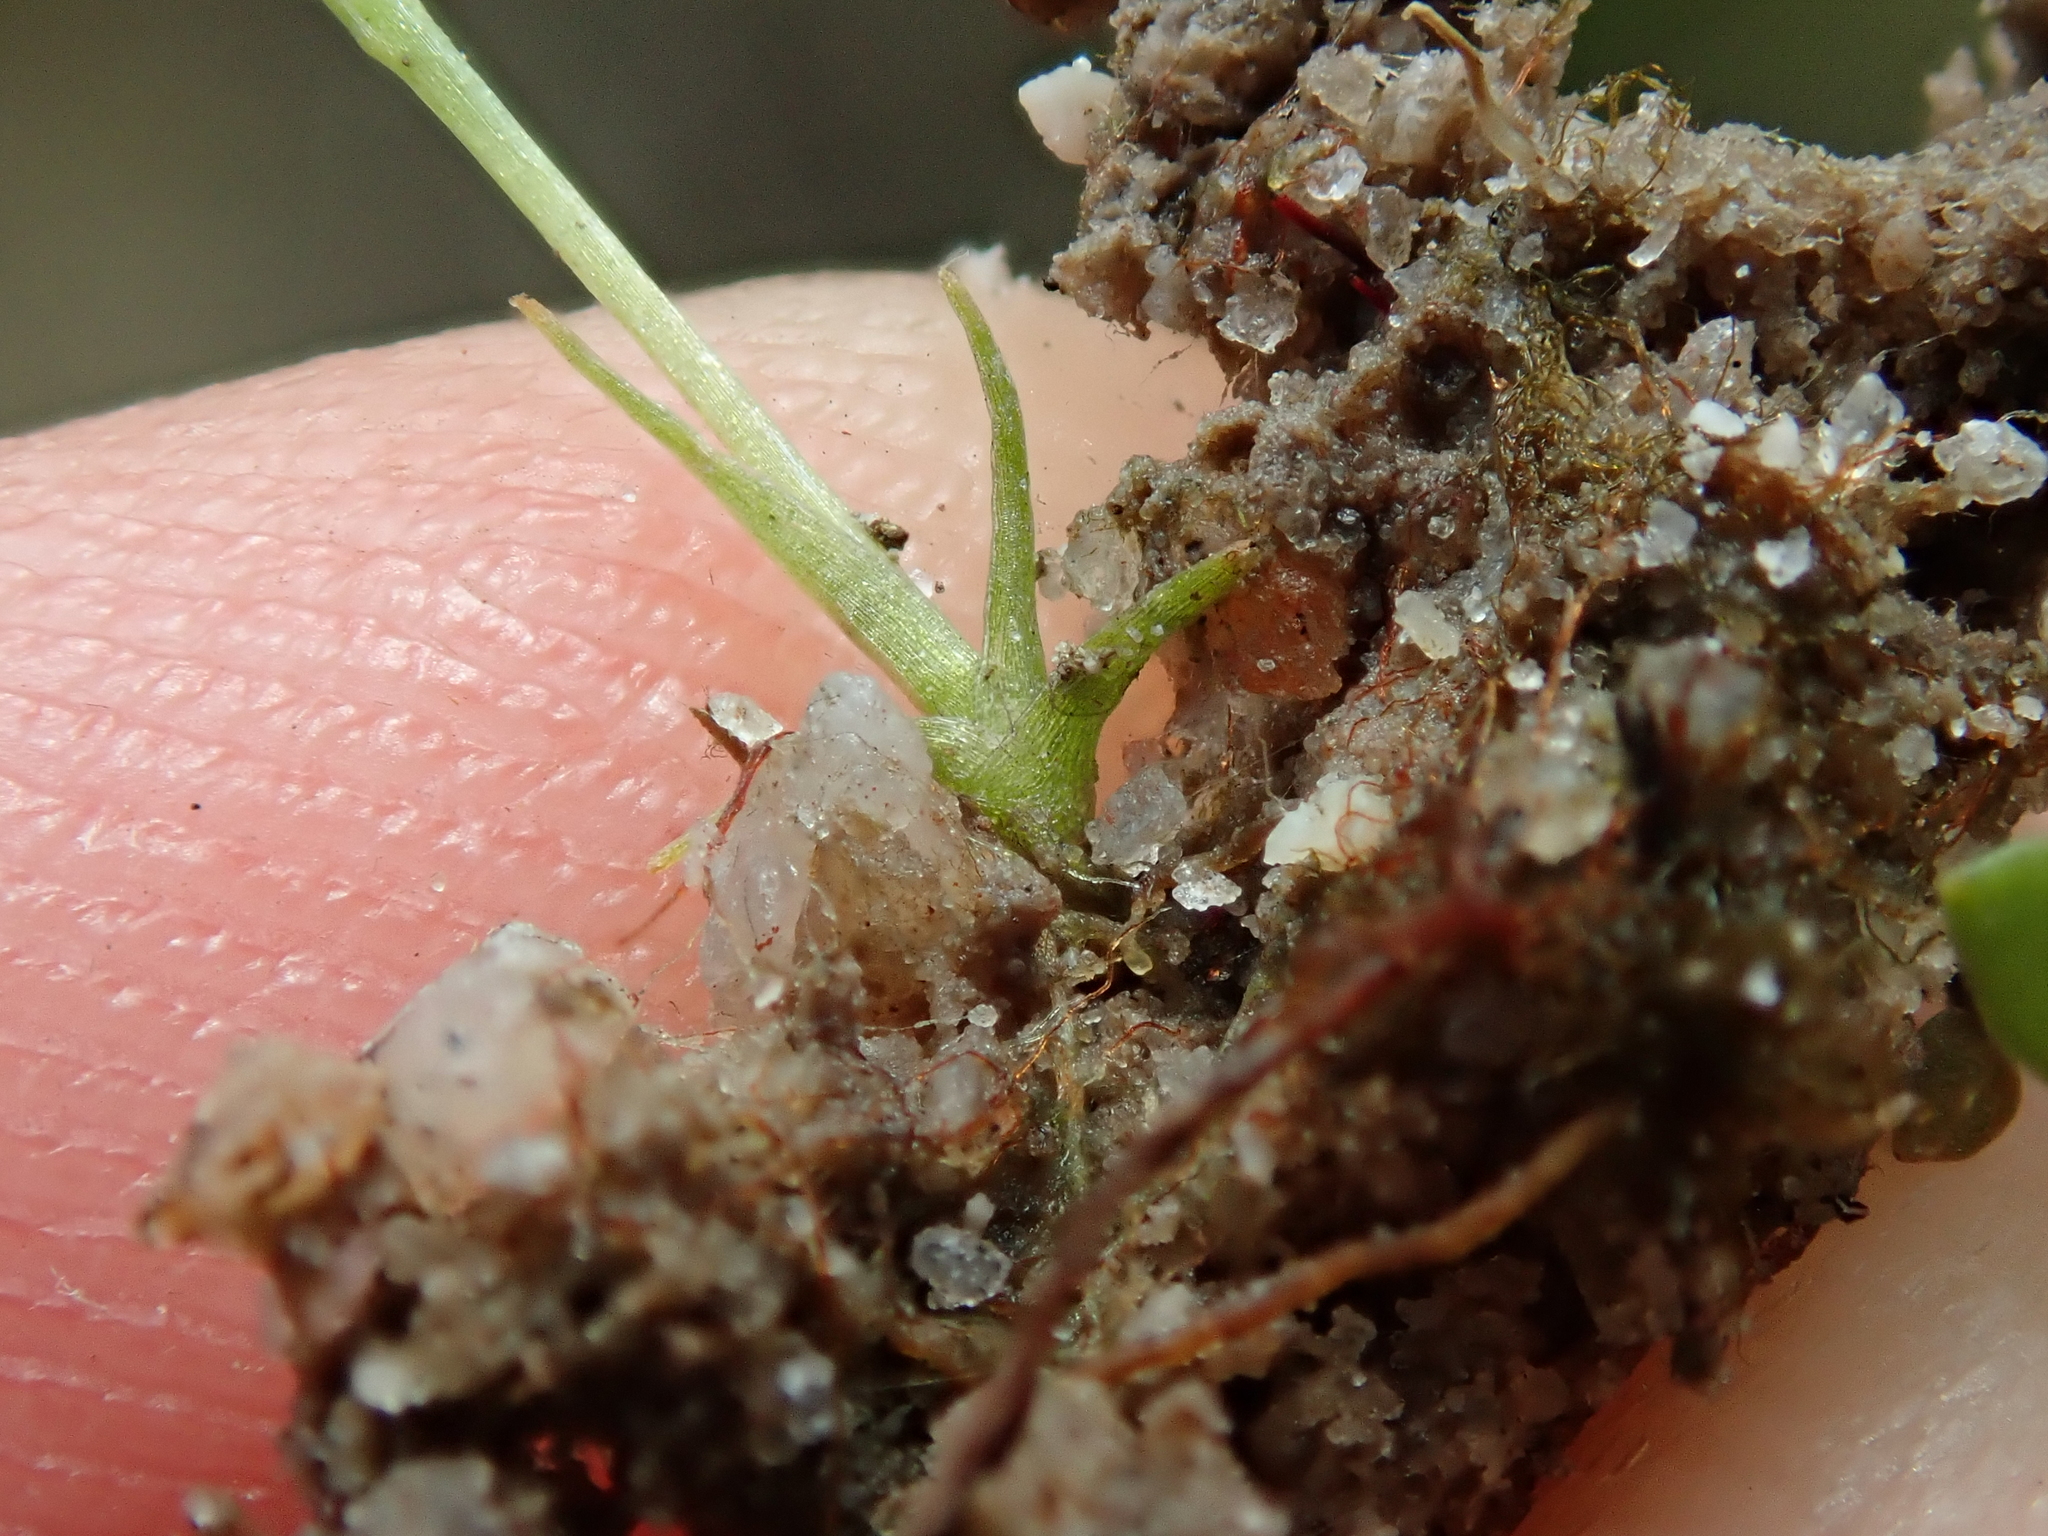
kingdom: Plantae
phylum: Tracheophyta
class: Liliopsida
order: Dioscoreales
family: Burmanniaceae
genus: Burmannia
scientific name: Burmannia flava
